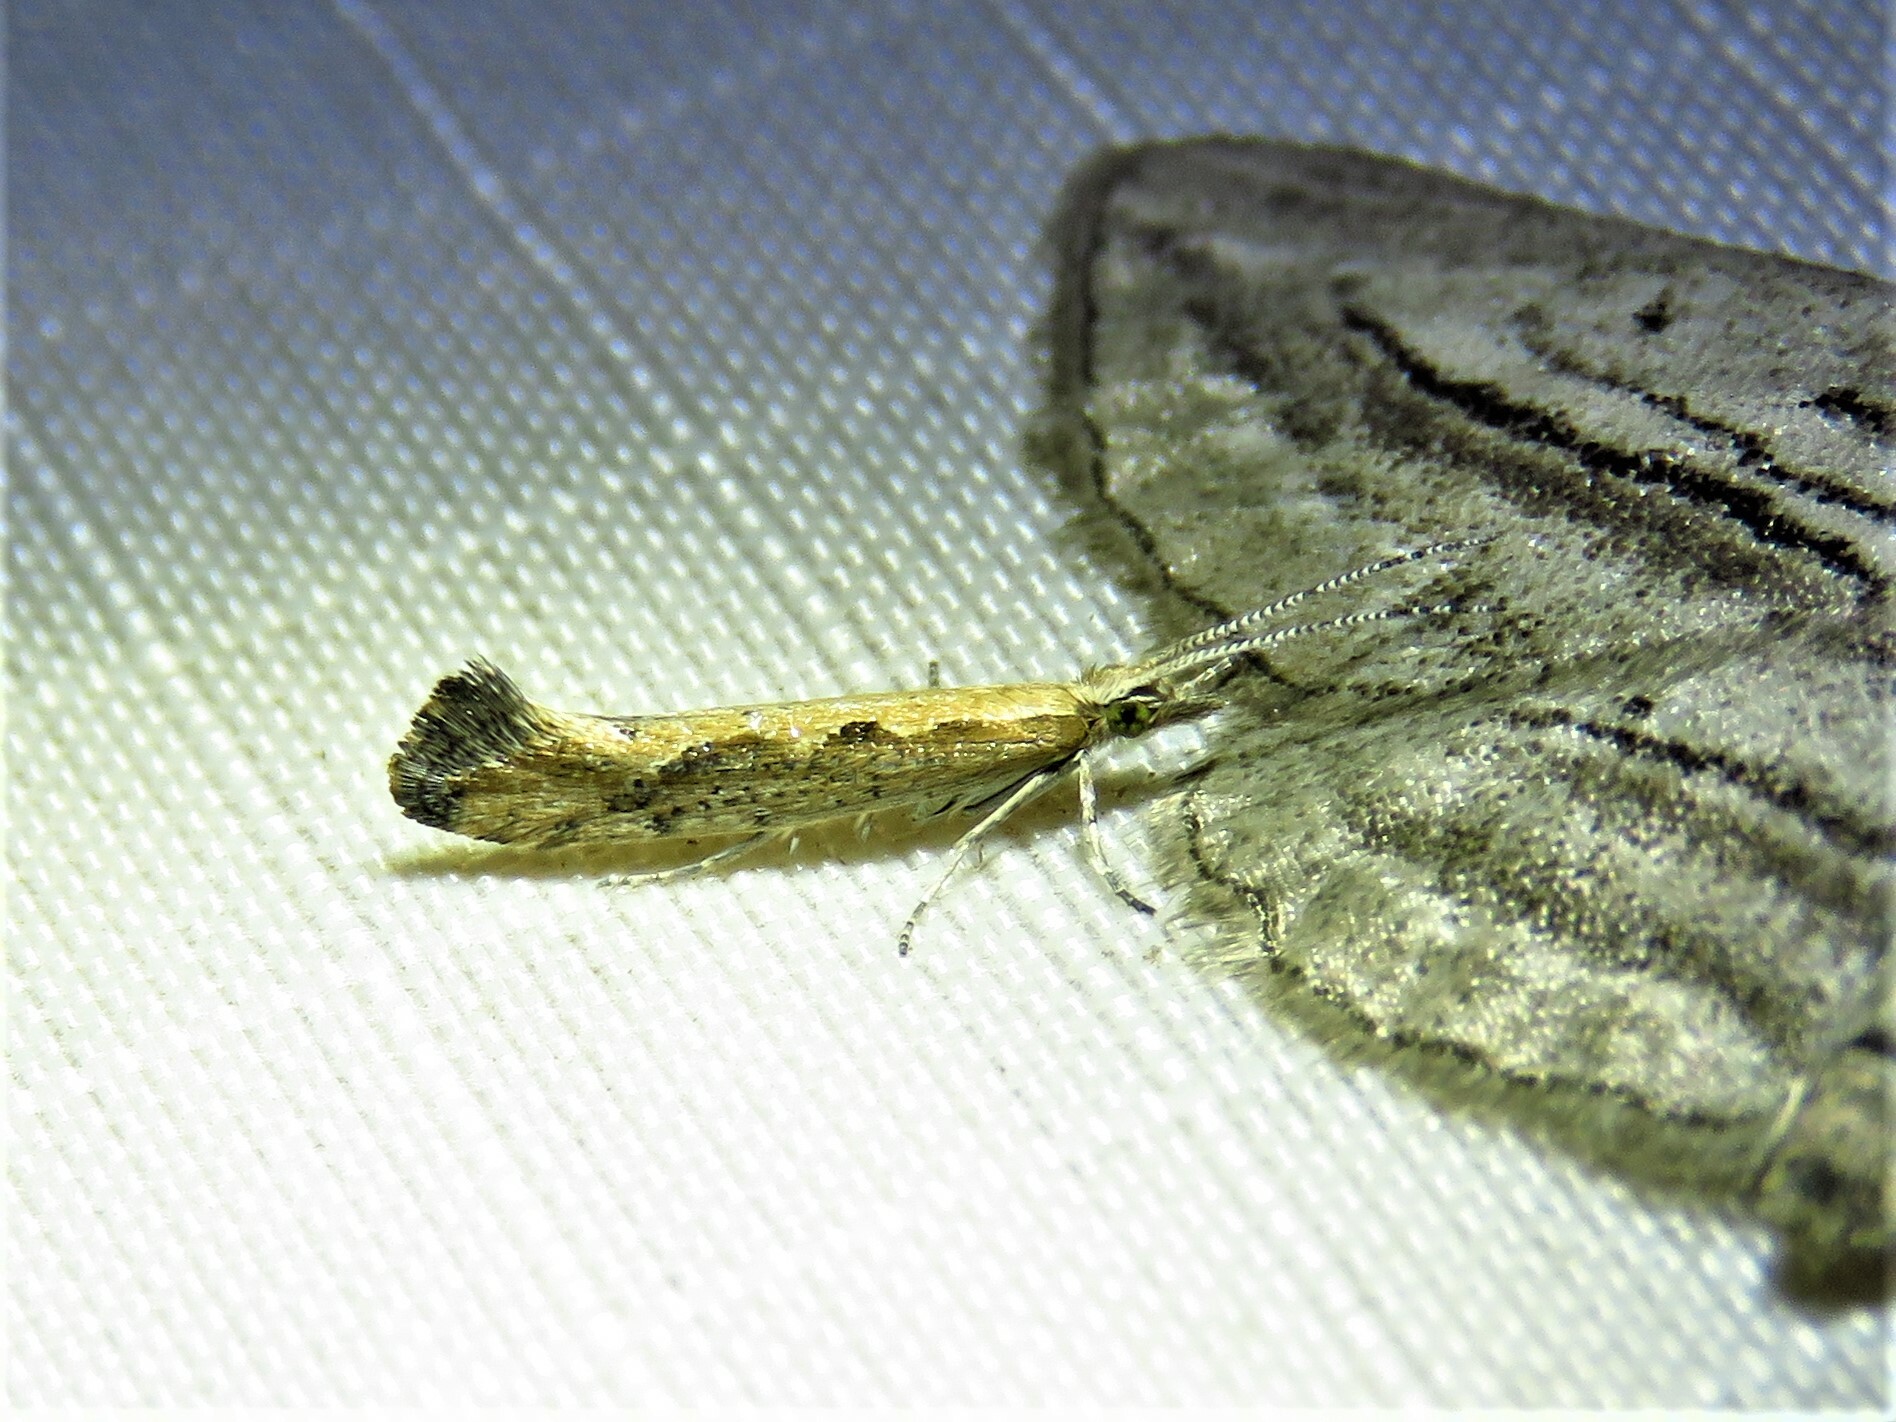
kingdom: Animalia
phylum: Arthropoda
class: Insecta
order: Lepidoptera
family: Plutellidae
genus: Plutella
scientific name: Plutella xylostella
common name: Diamond-back moth
